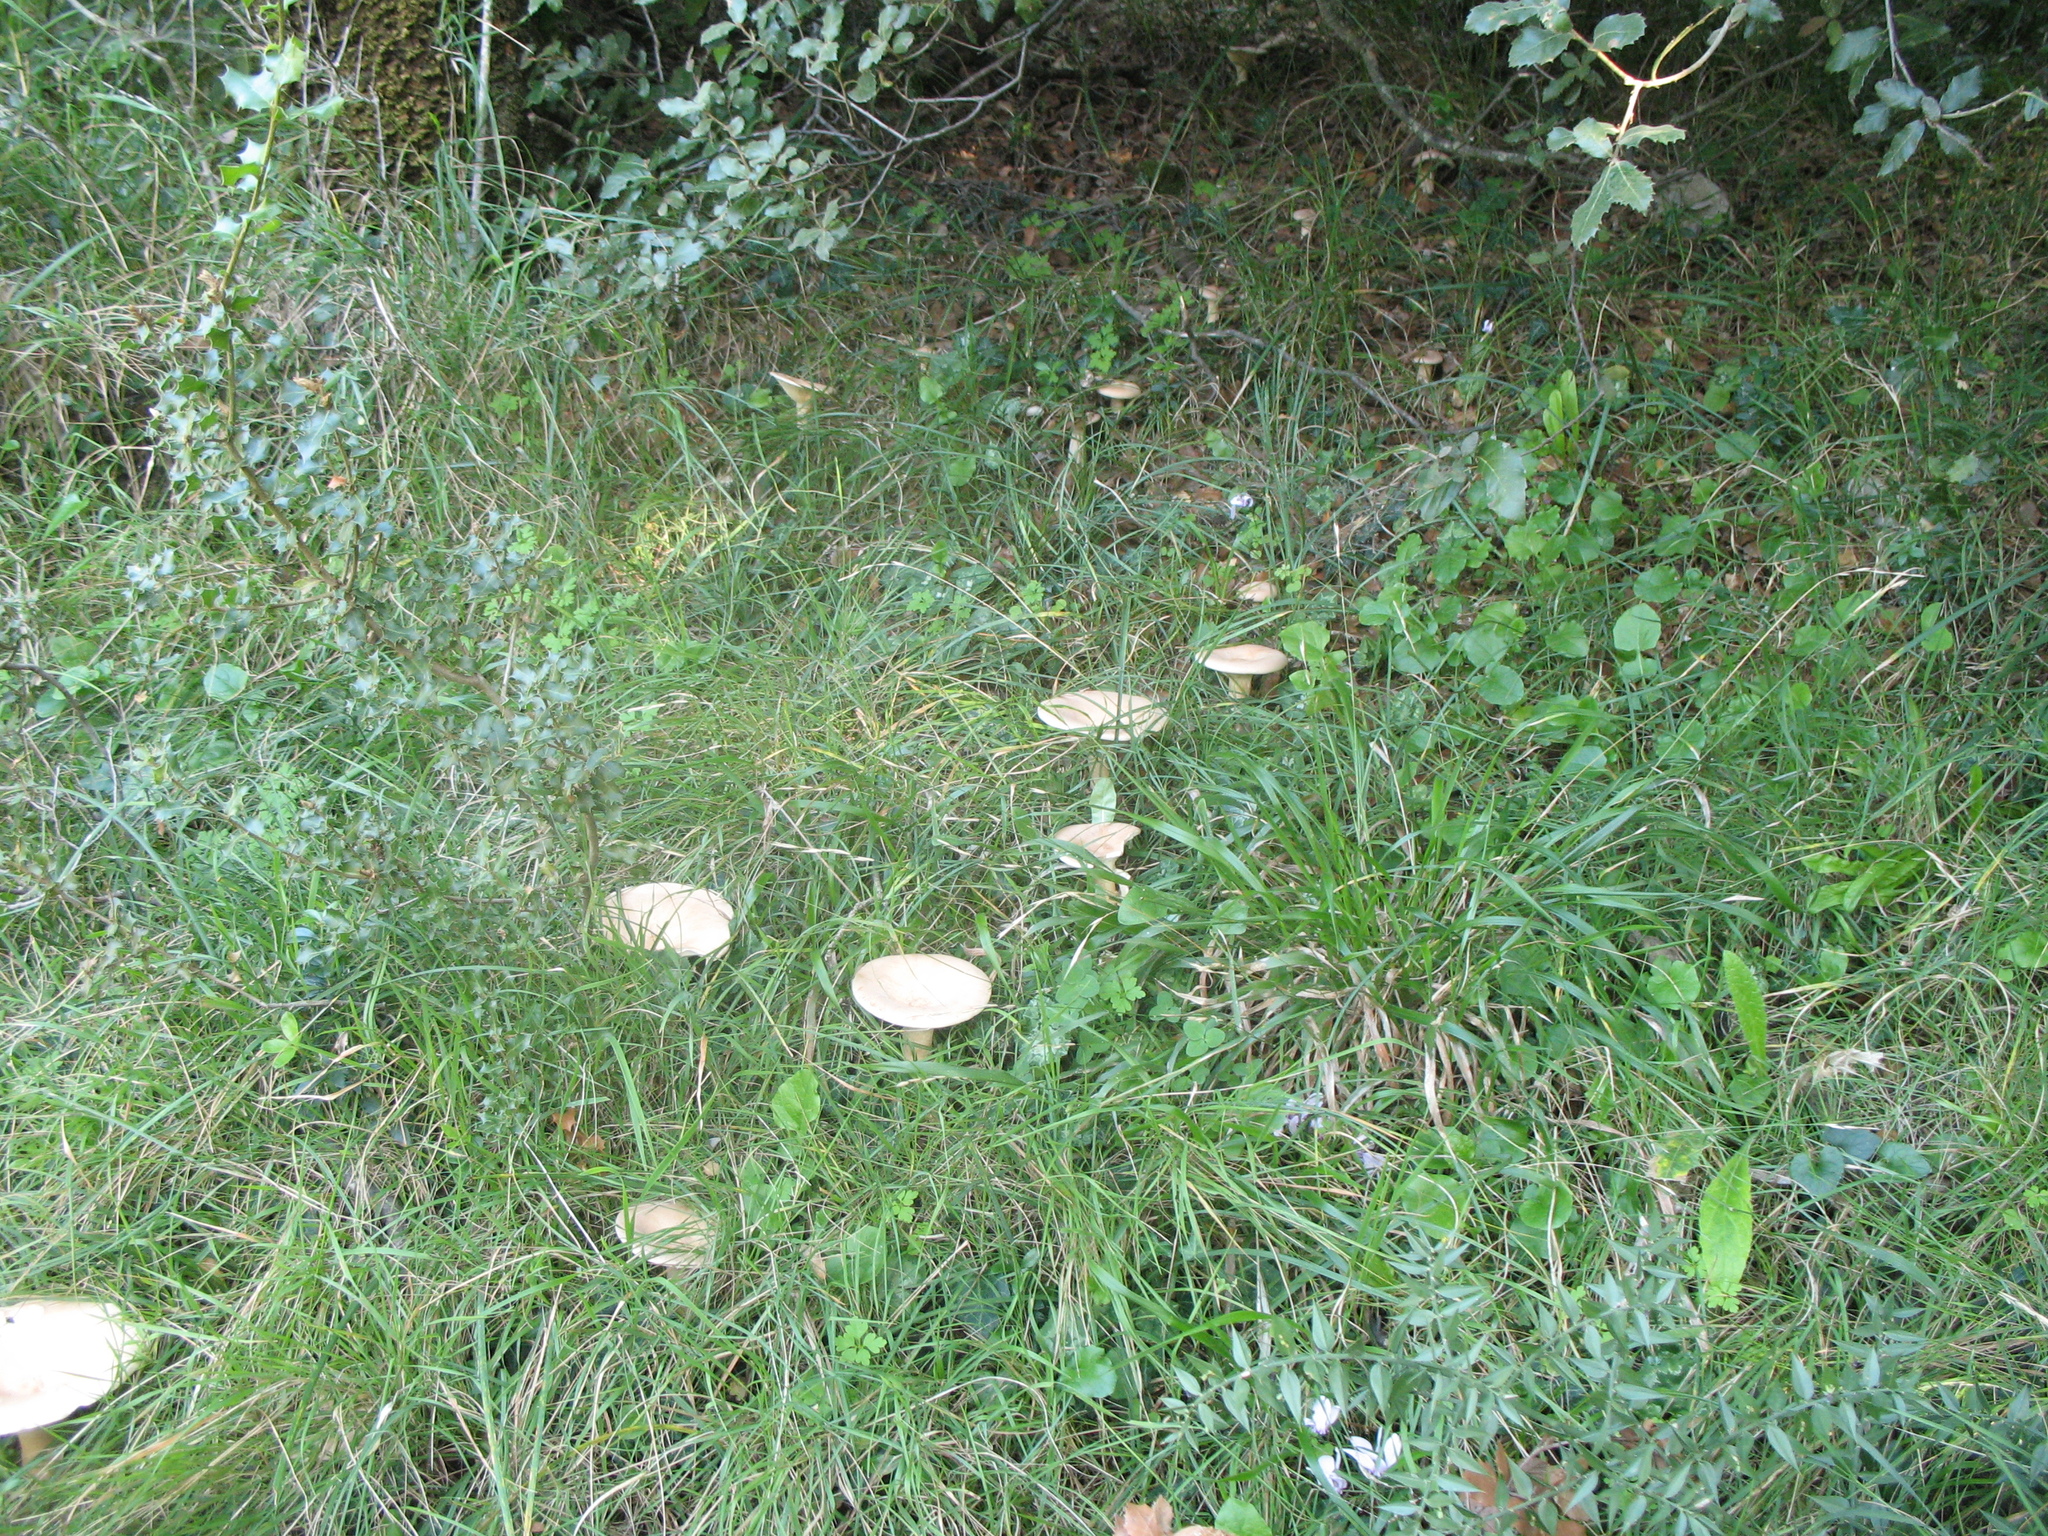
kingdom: Fungi
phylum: Basidiomycota
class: Agaricomycetes
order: Agaricales
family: Tricholomataceae
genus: Infundibulicybe
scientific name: Infundibulicybe geotropa
